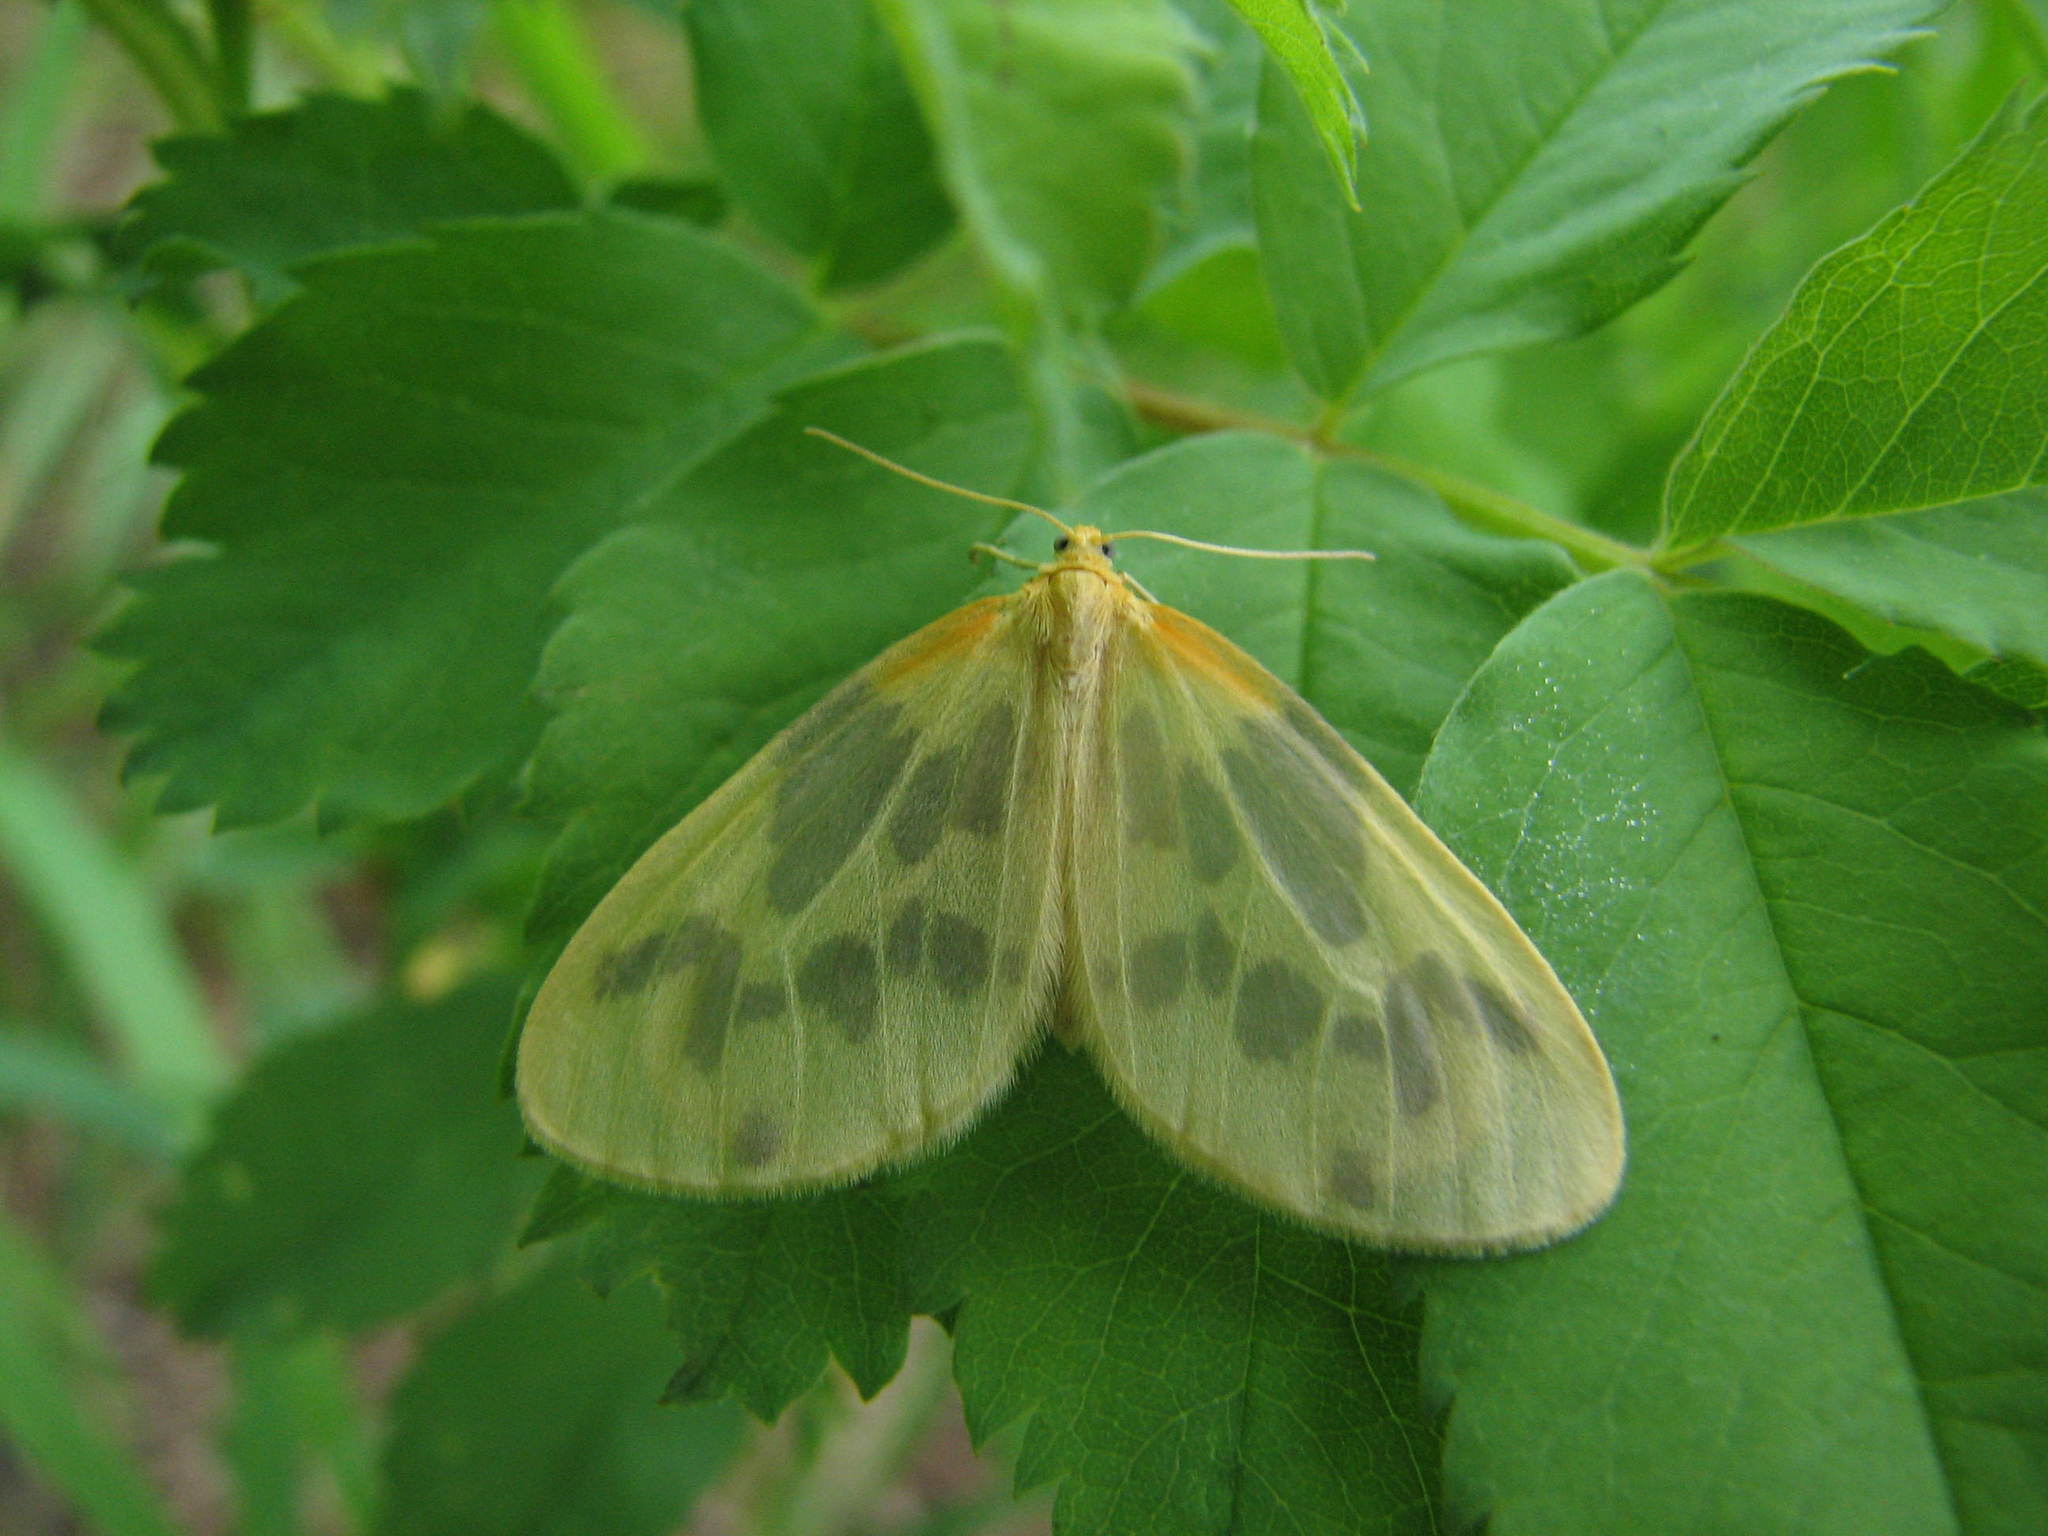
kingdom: Animalia
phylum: Arthropoda
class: Insecta
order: Lepidoptera
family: Geometridae
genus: Eubaphe
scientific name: Eubaphe mendica
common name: Beggar
